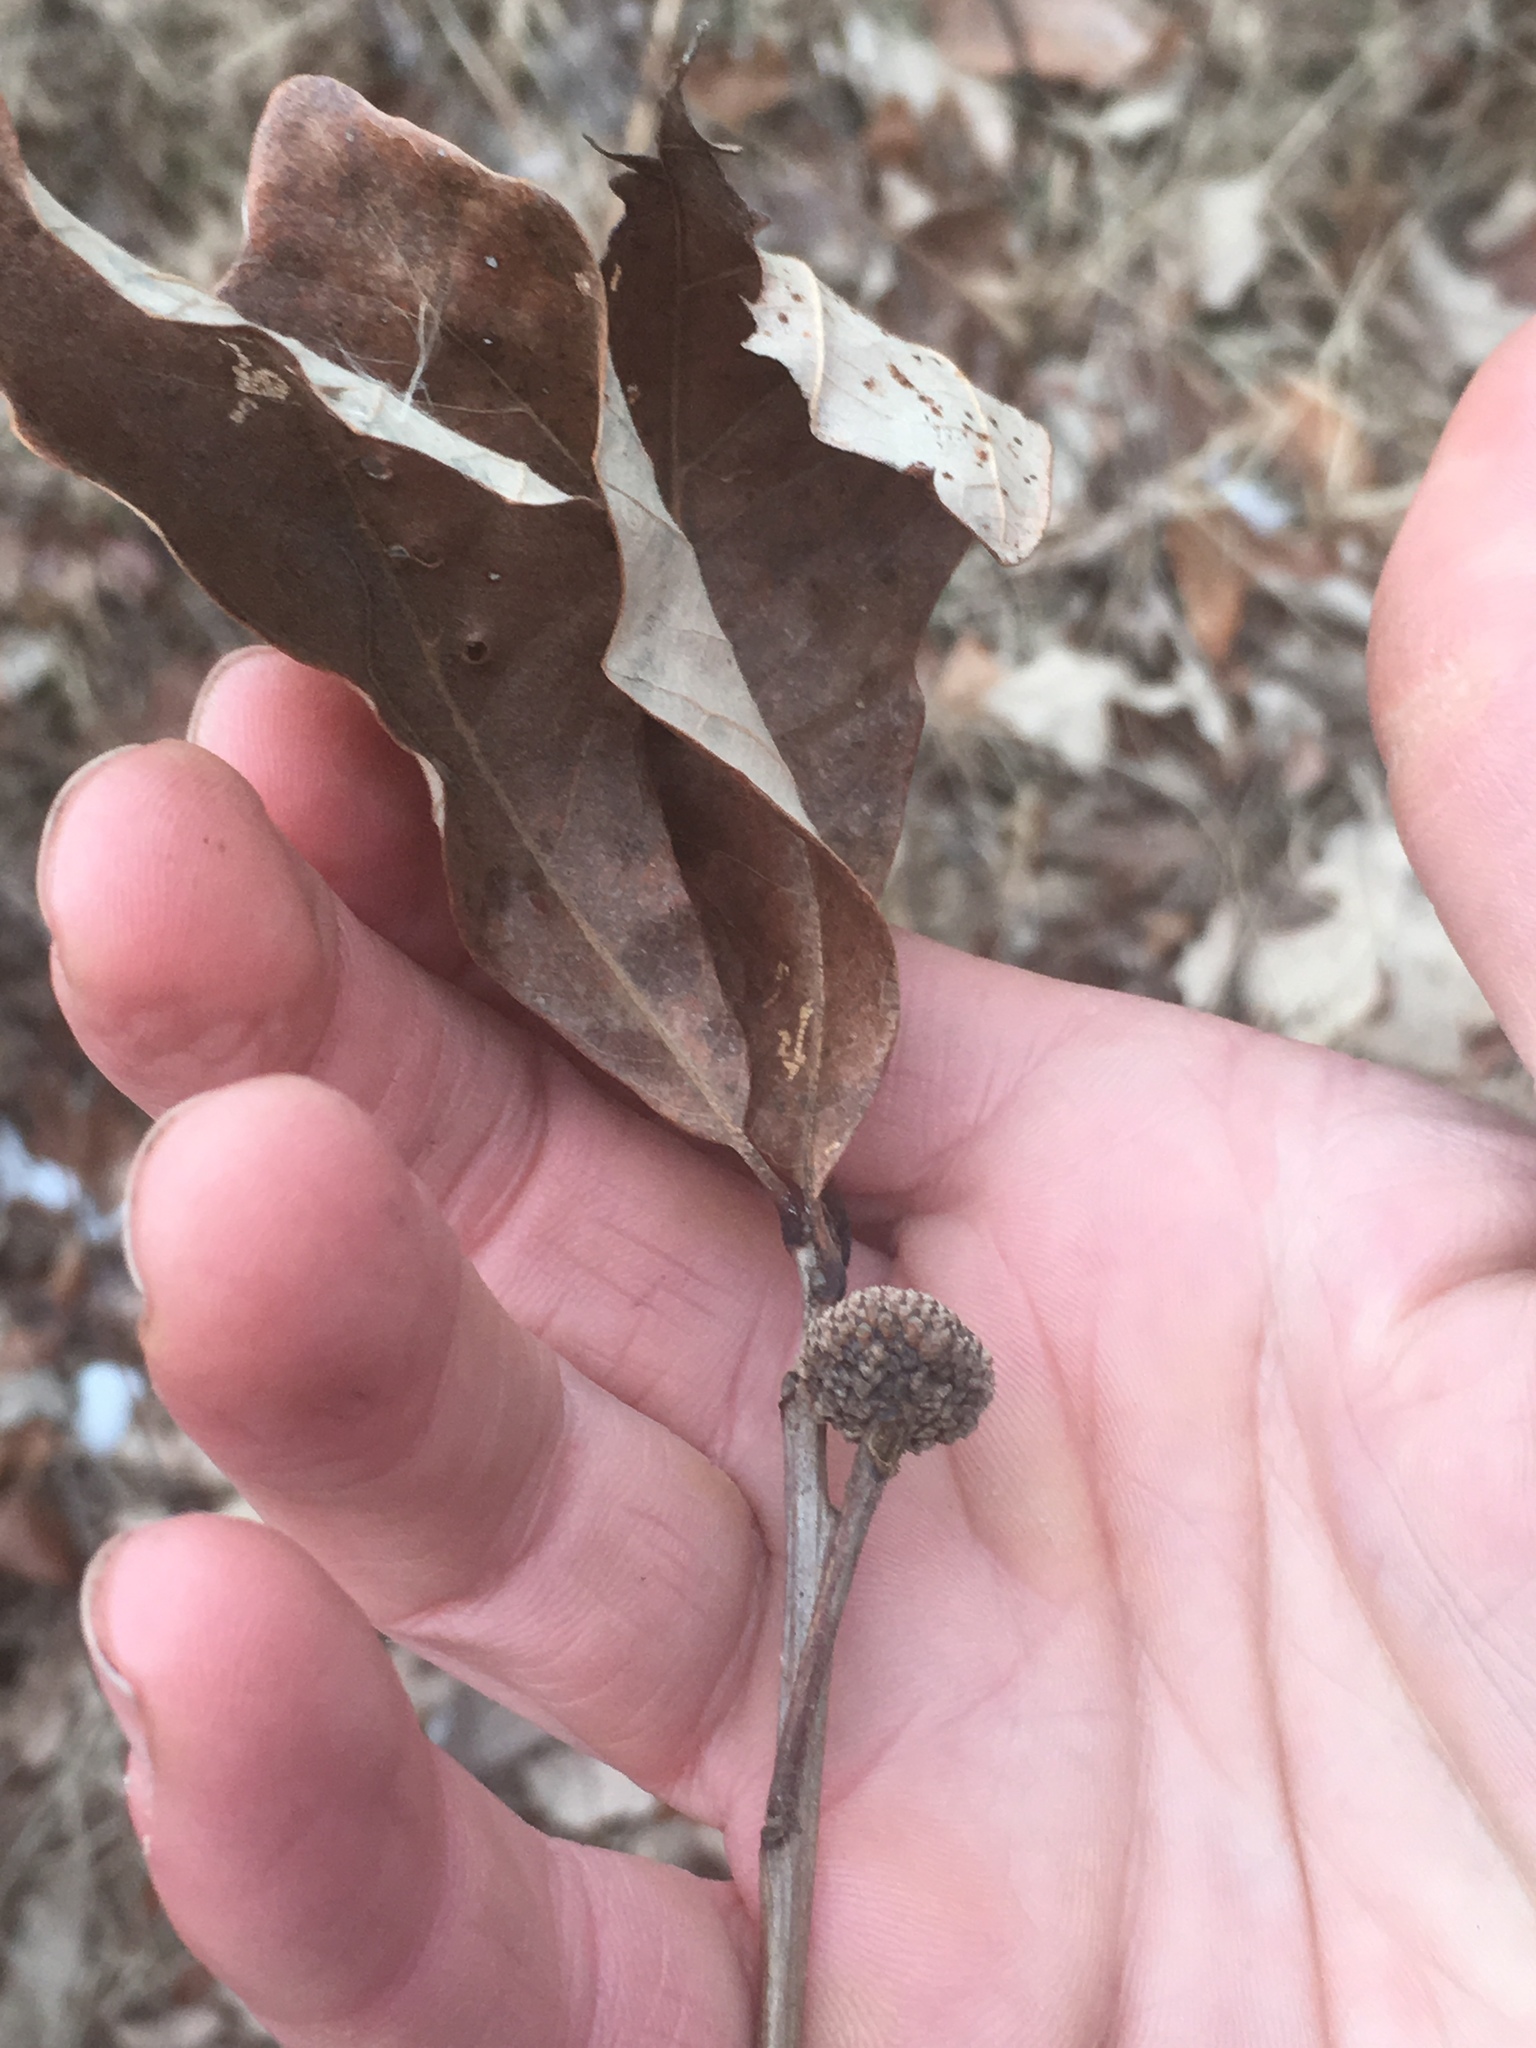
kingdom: Plantae
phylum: Tracheophyta
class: Magnoliopsida
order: Fagales
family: Fagaceae
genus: Quercus
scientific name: Quercus bicolor
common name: Swamp white oak
